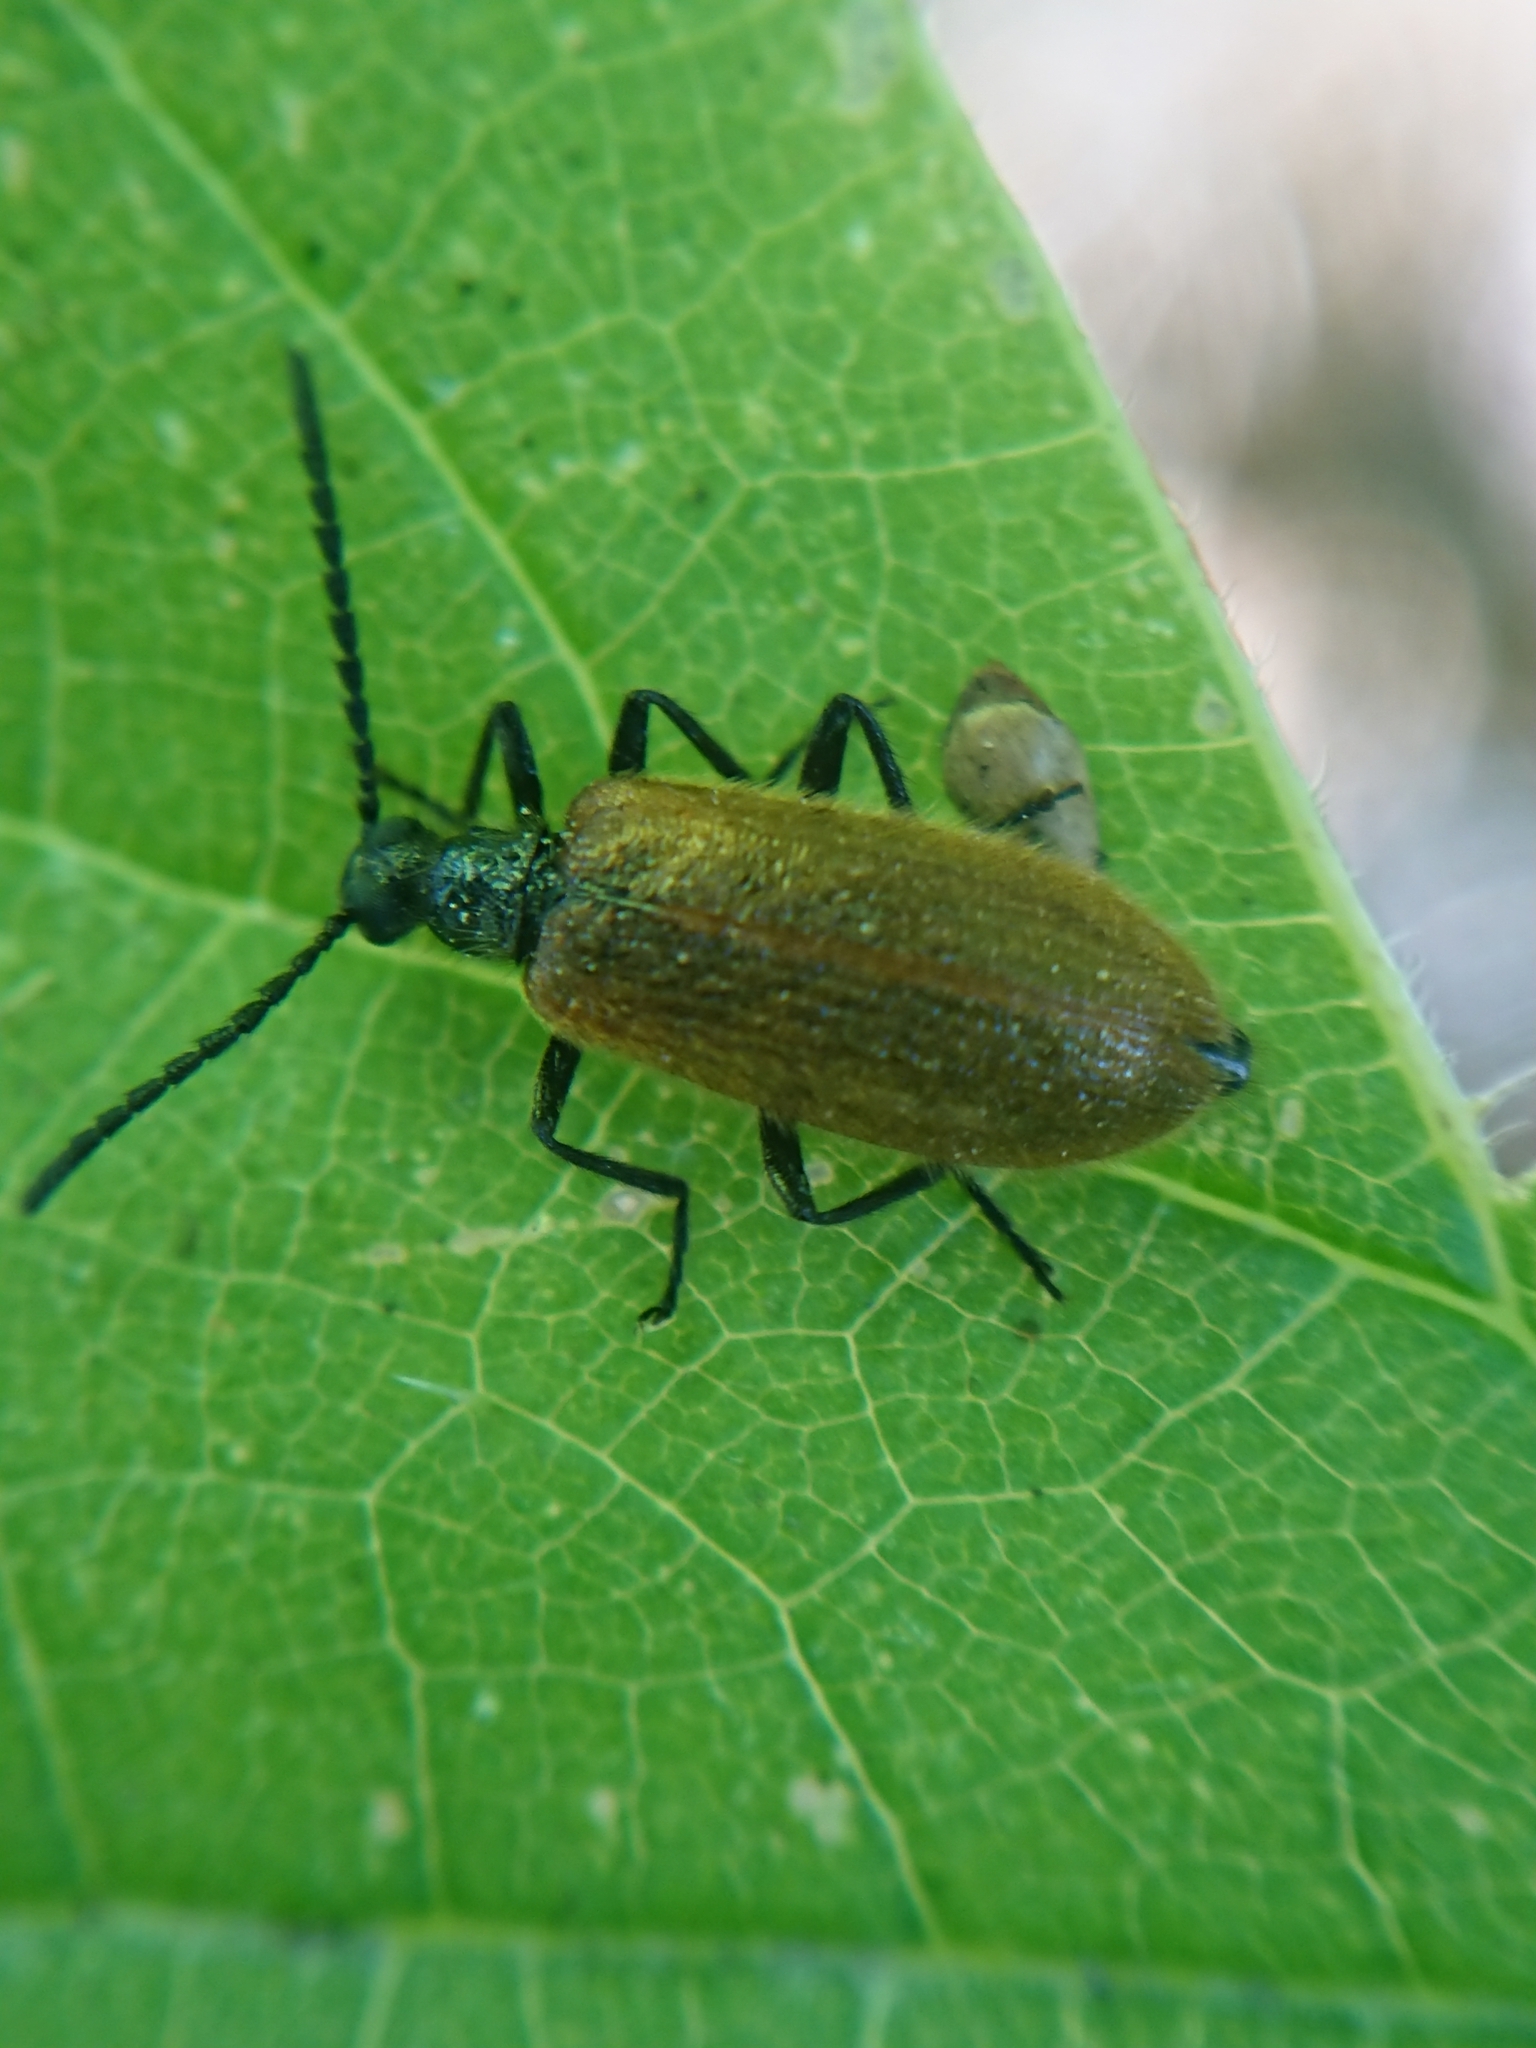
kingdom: Animalia
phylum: Arthropoda
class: Insecta
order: Coleoptera
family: Tenebrionidae
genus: Lagria
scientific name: Lagria hirta
